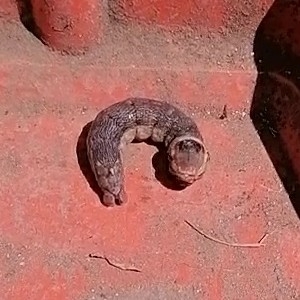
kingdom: Animalia
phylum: Arthropoda
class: Insecta
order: Lepidoptera
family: Sphingidae
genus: Erinnyis
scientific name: Erinnyis alope
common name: Alope sphinx
